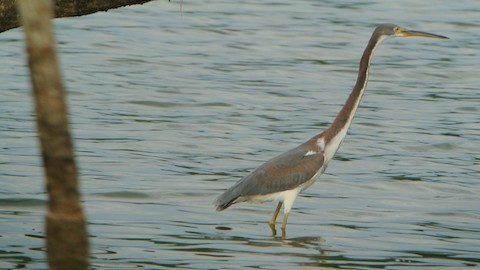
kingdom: Animalia
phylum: Chordata
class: Aves
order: Pelecaniformes
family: Ardeidae
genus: Egretta
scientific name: Egretta tricolor
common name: Tricolored heron
